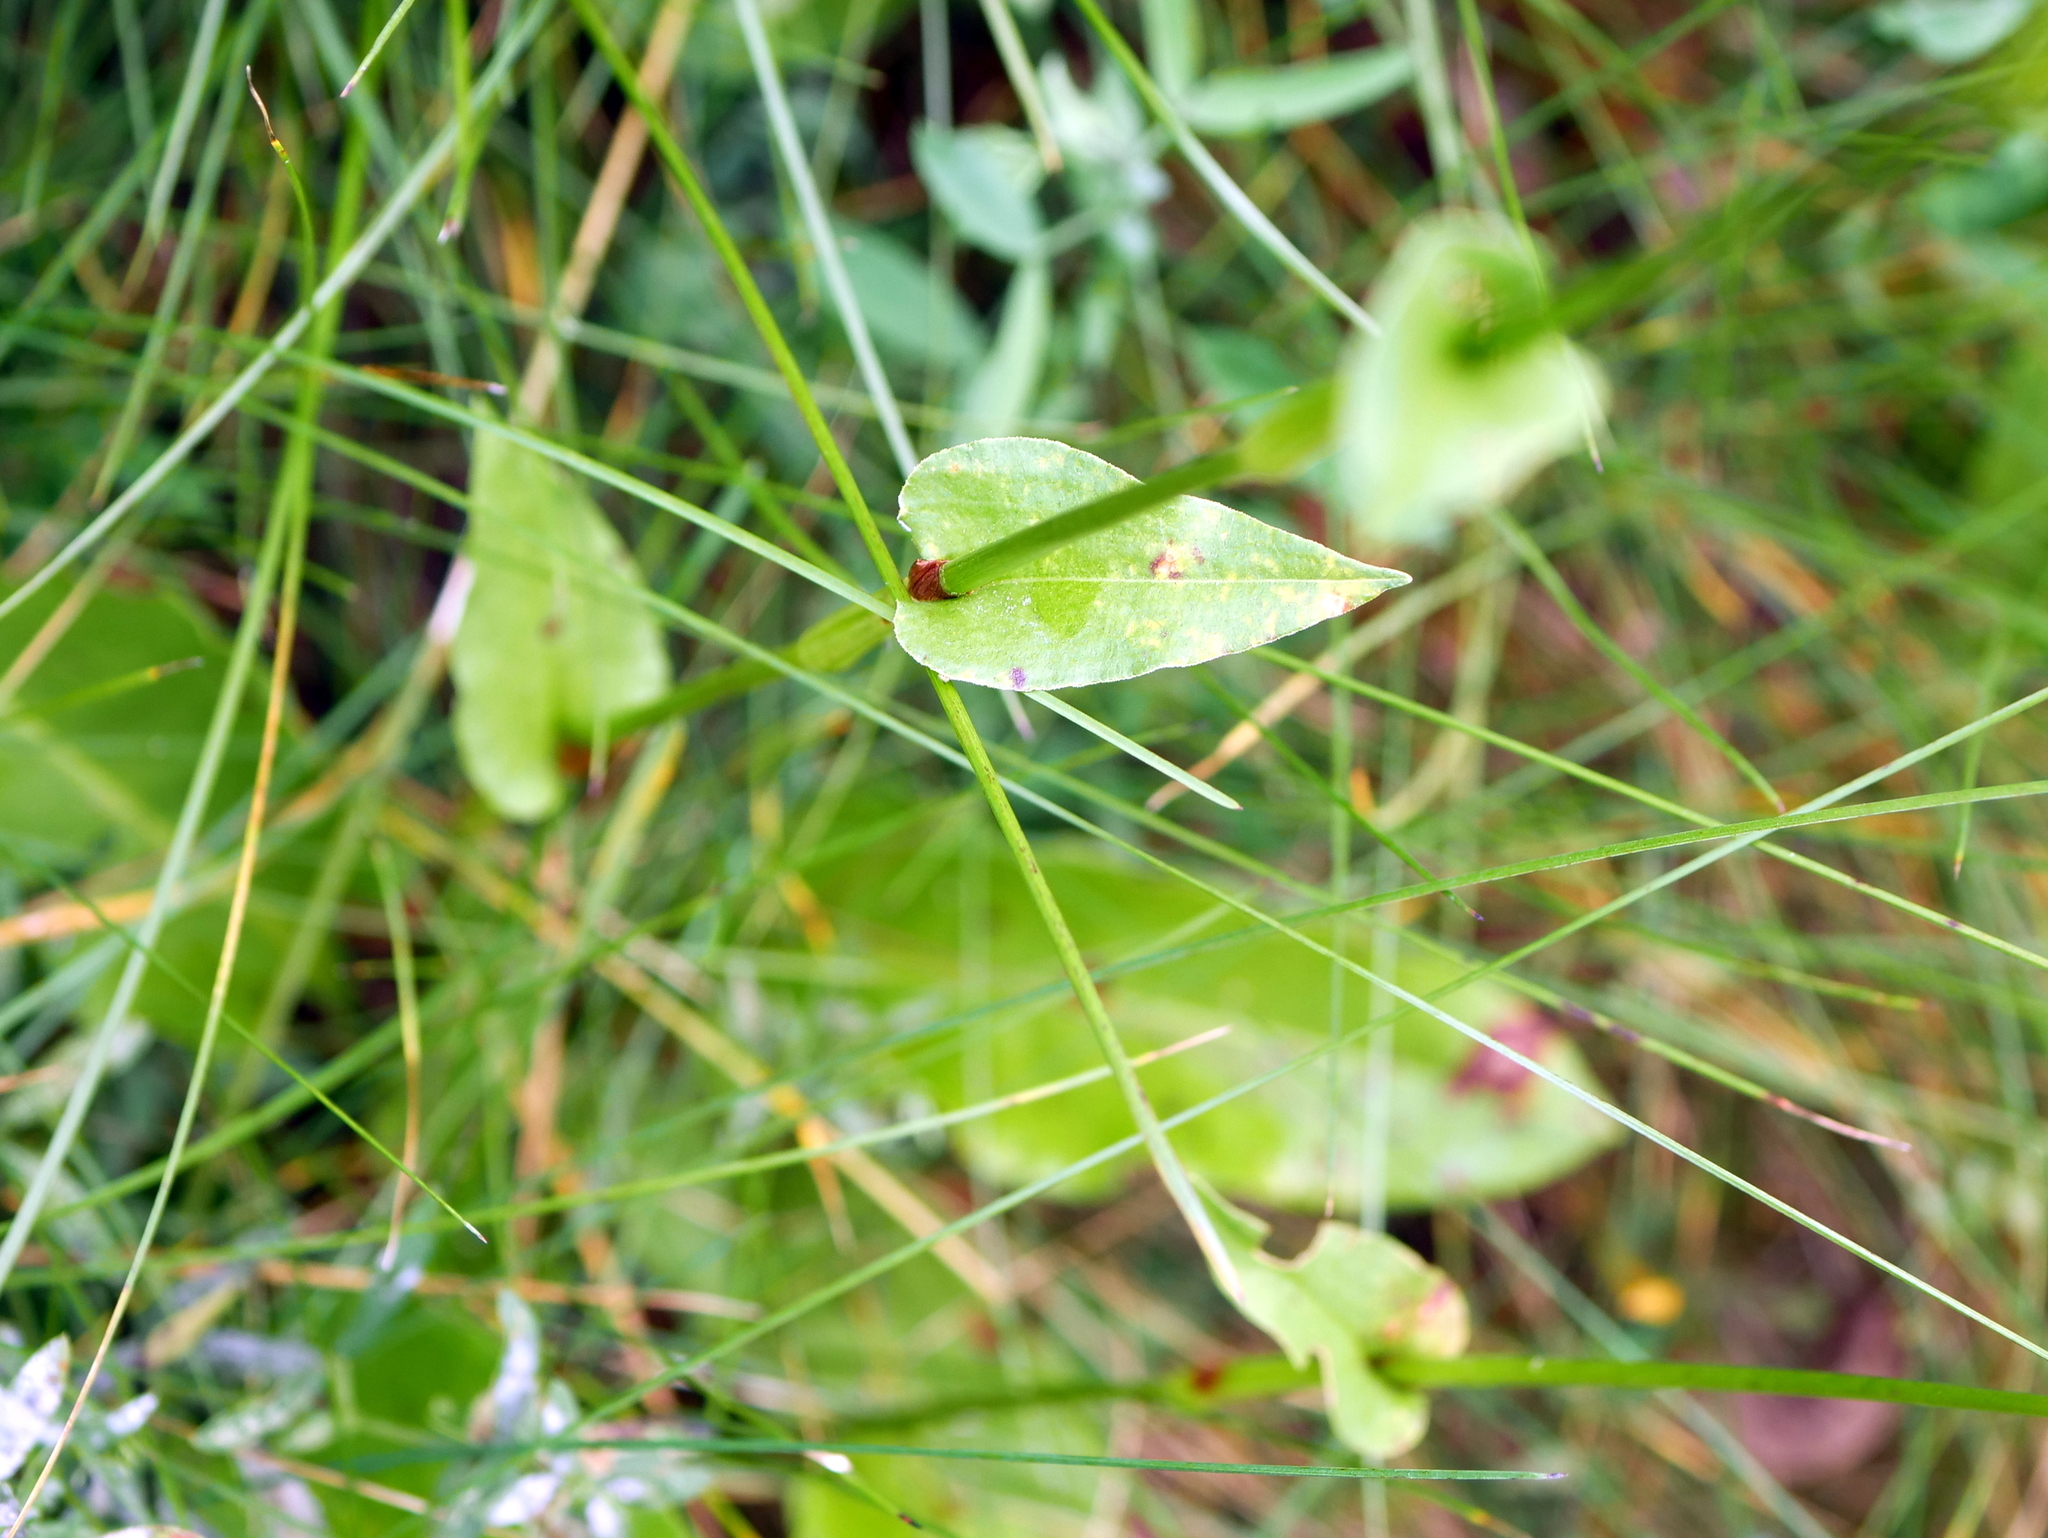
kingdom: Plantae
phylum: Tracheophyta
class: Magnoliopsida
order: Caryophyllales
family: Polygonaceae
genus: Bistorta
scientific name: Bistorta officinalis
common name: Common bistort
